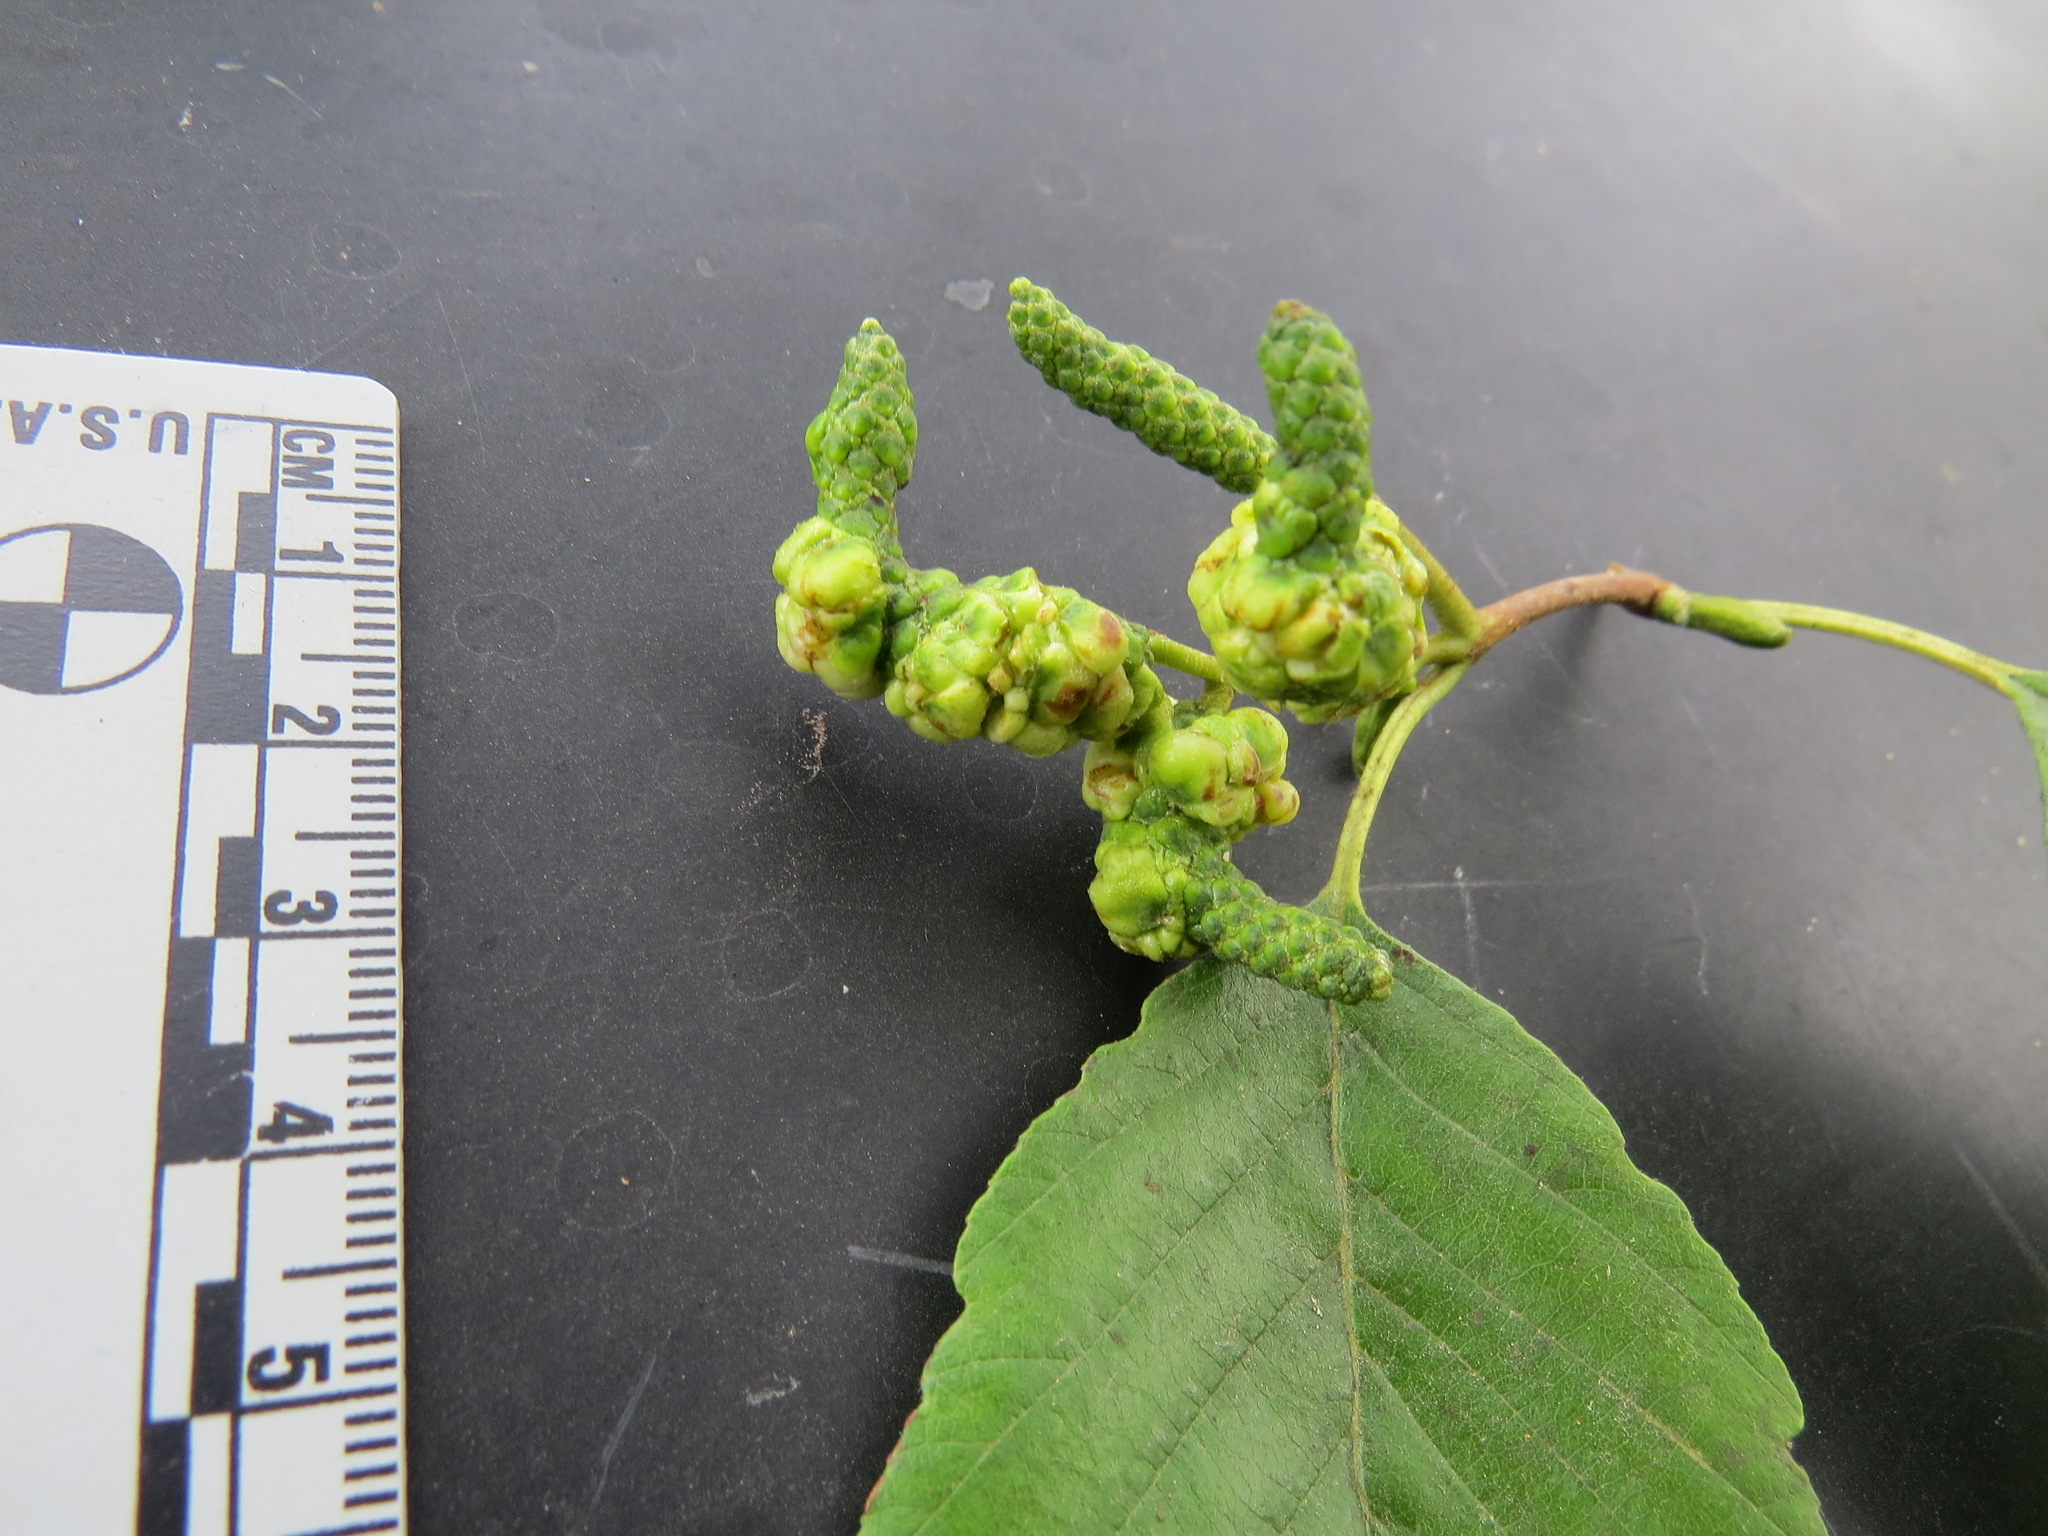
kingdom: Animalia
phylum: Arthropoda
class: Insecta
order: Diptera
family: Cecidomyiidae
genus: Dasineura
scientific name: Dasineura
